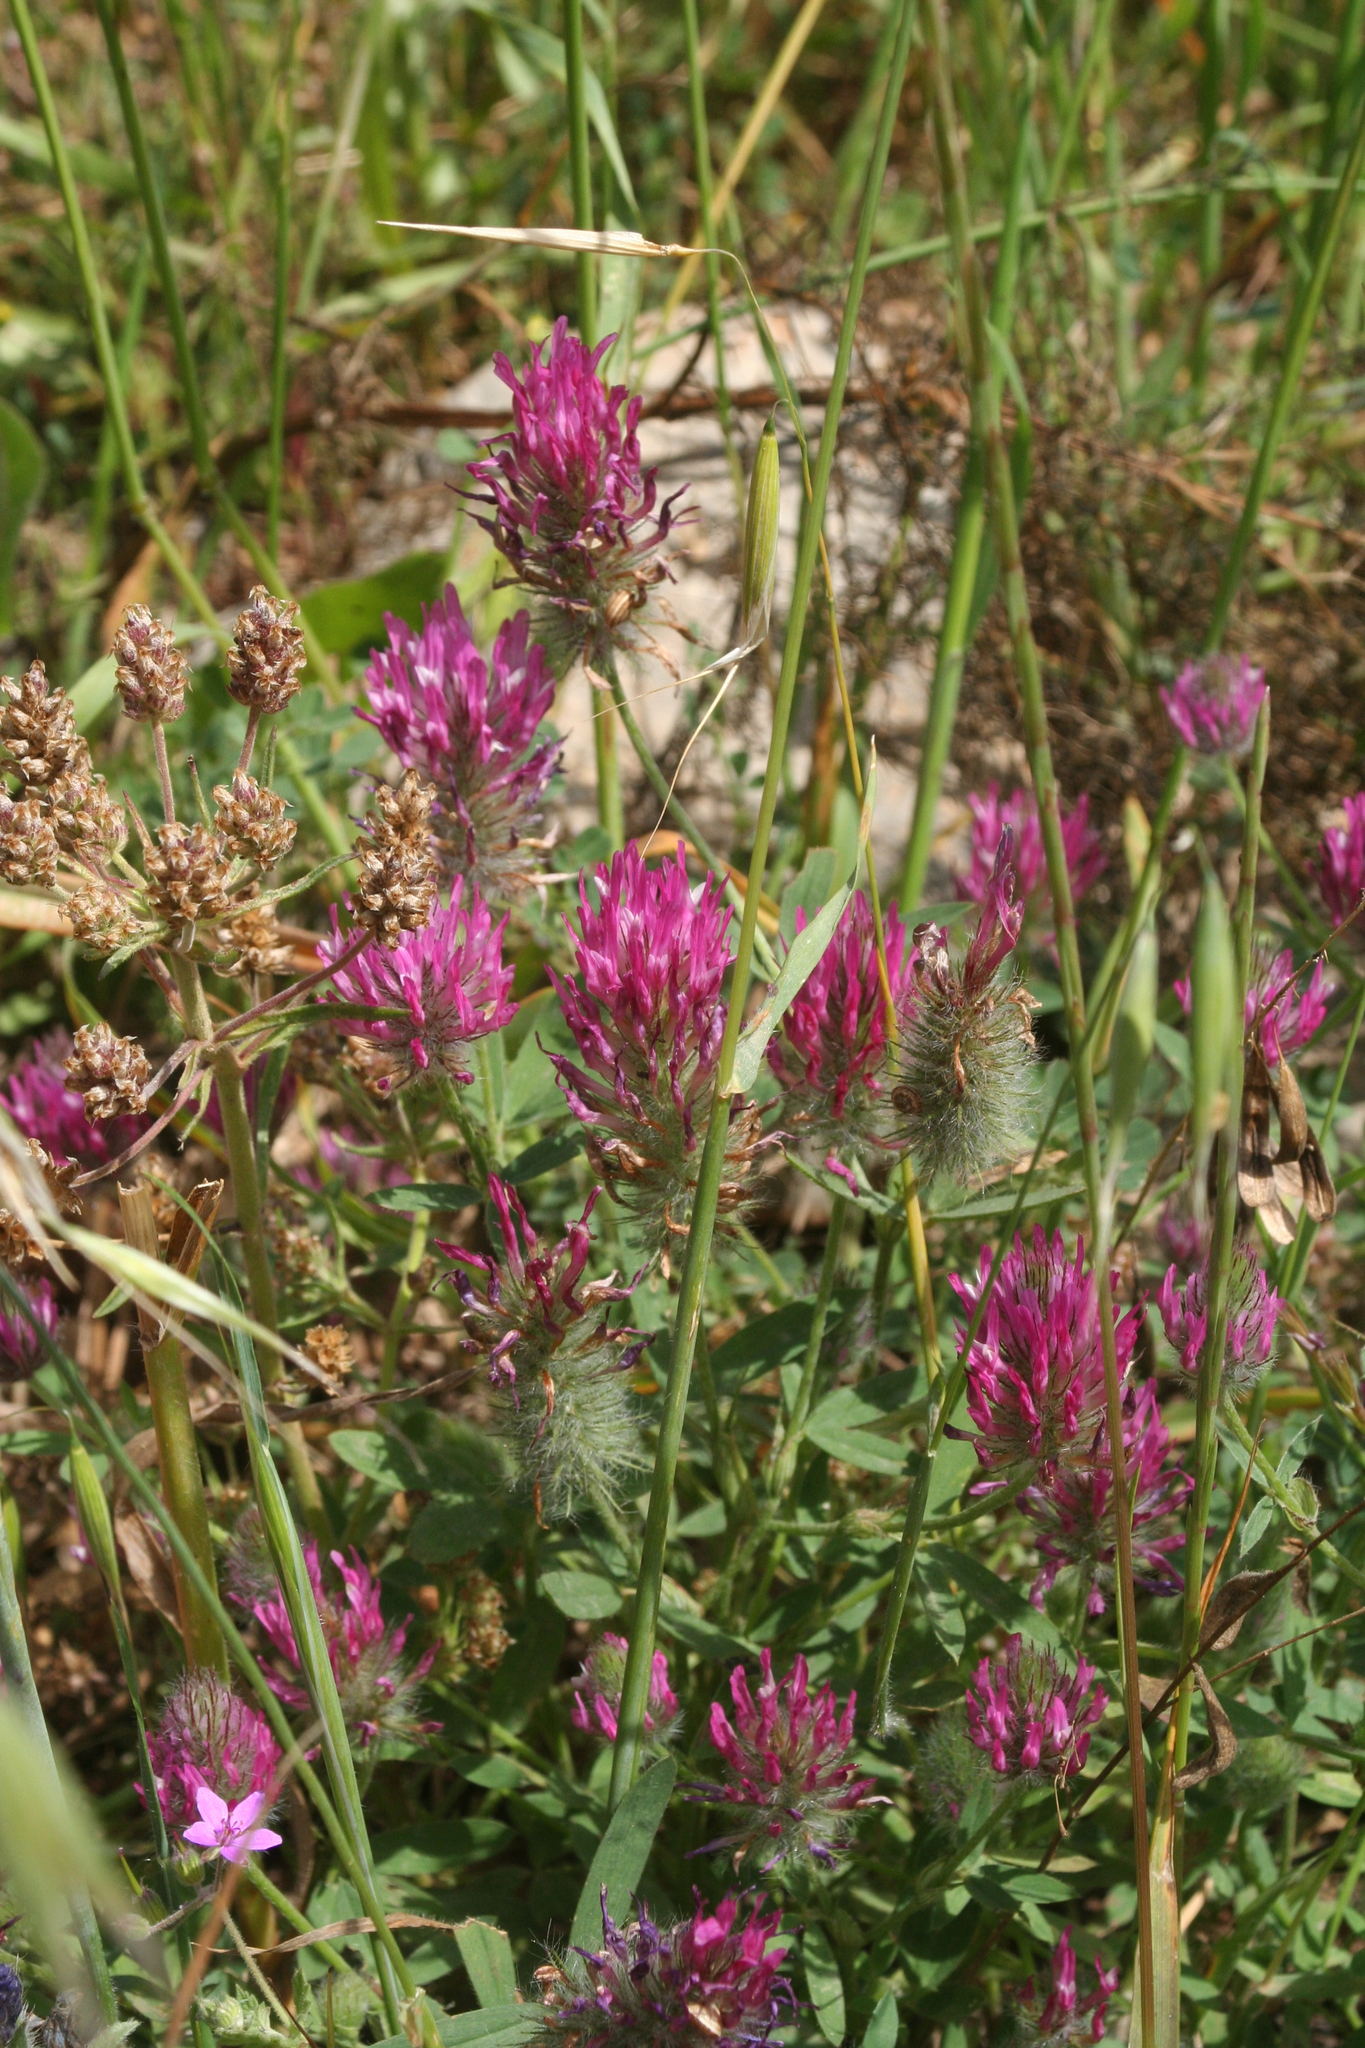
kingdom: Plantae
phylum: Tracheophyta
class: Magnoliopsida
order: Fabales
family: Fabaceae
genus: Trifolium
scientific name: Trifolium purpureum
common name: Purple clover
